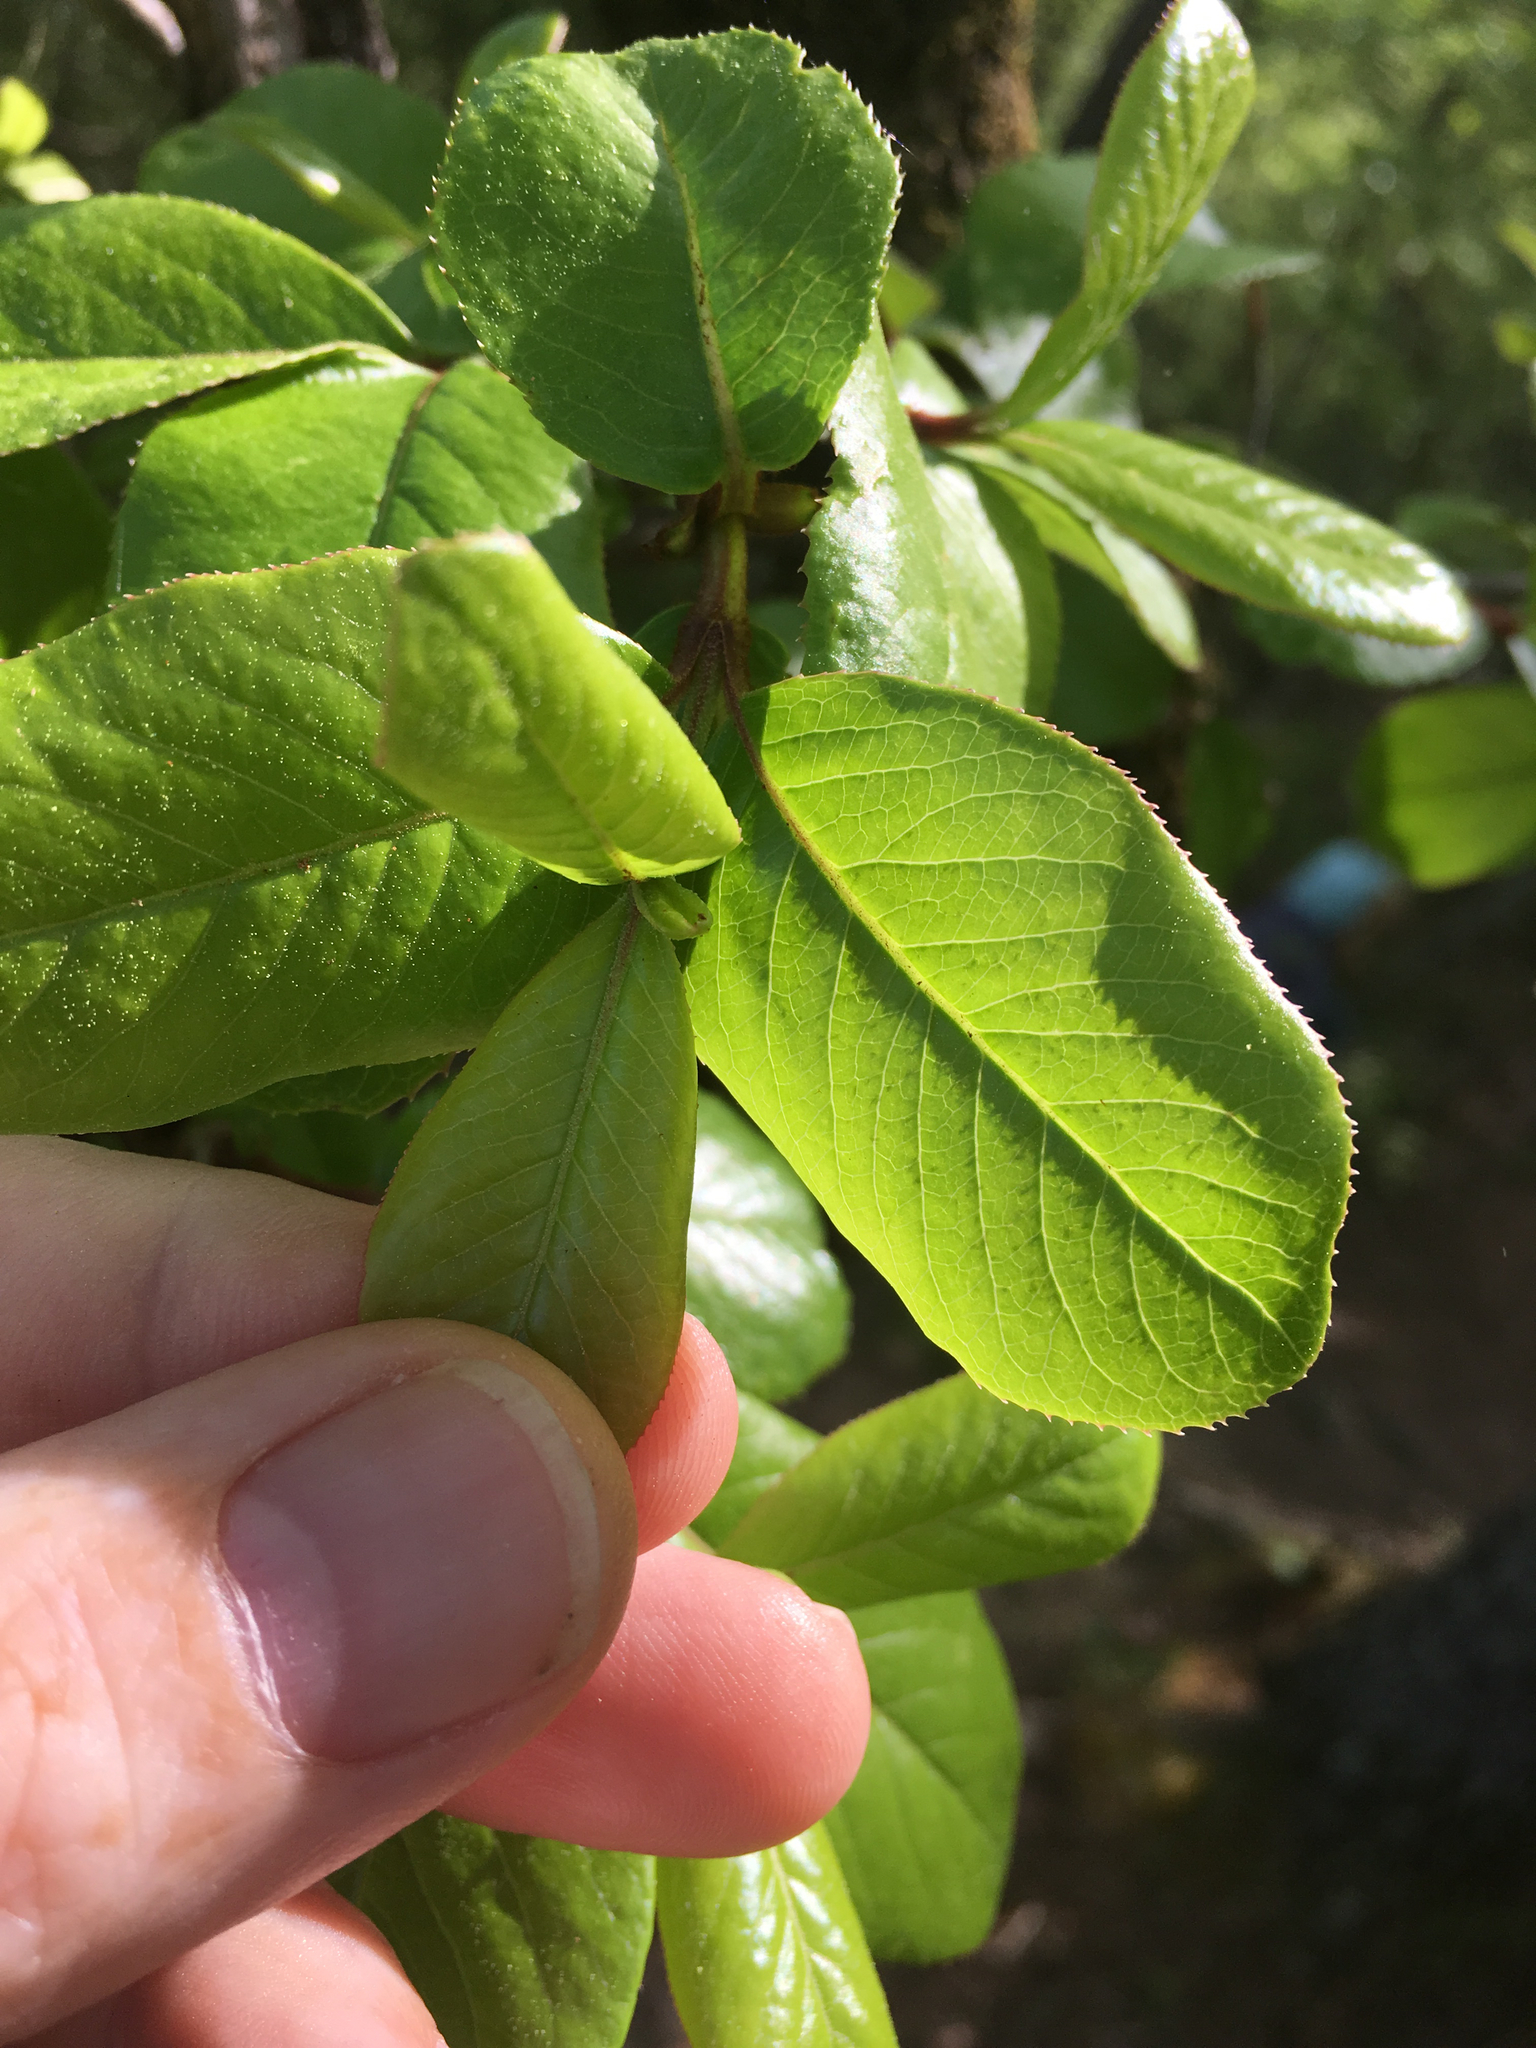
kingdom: Plantae
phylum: Tracheophyta
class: Magnoliopsida
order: Dipsacales
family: Viburnaceae
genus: Viburnum
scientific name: Viburnum rufidulum
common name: Blue haw
